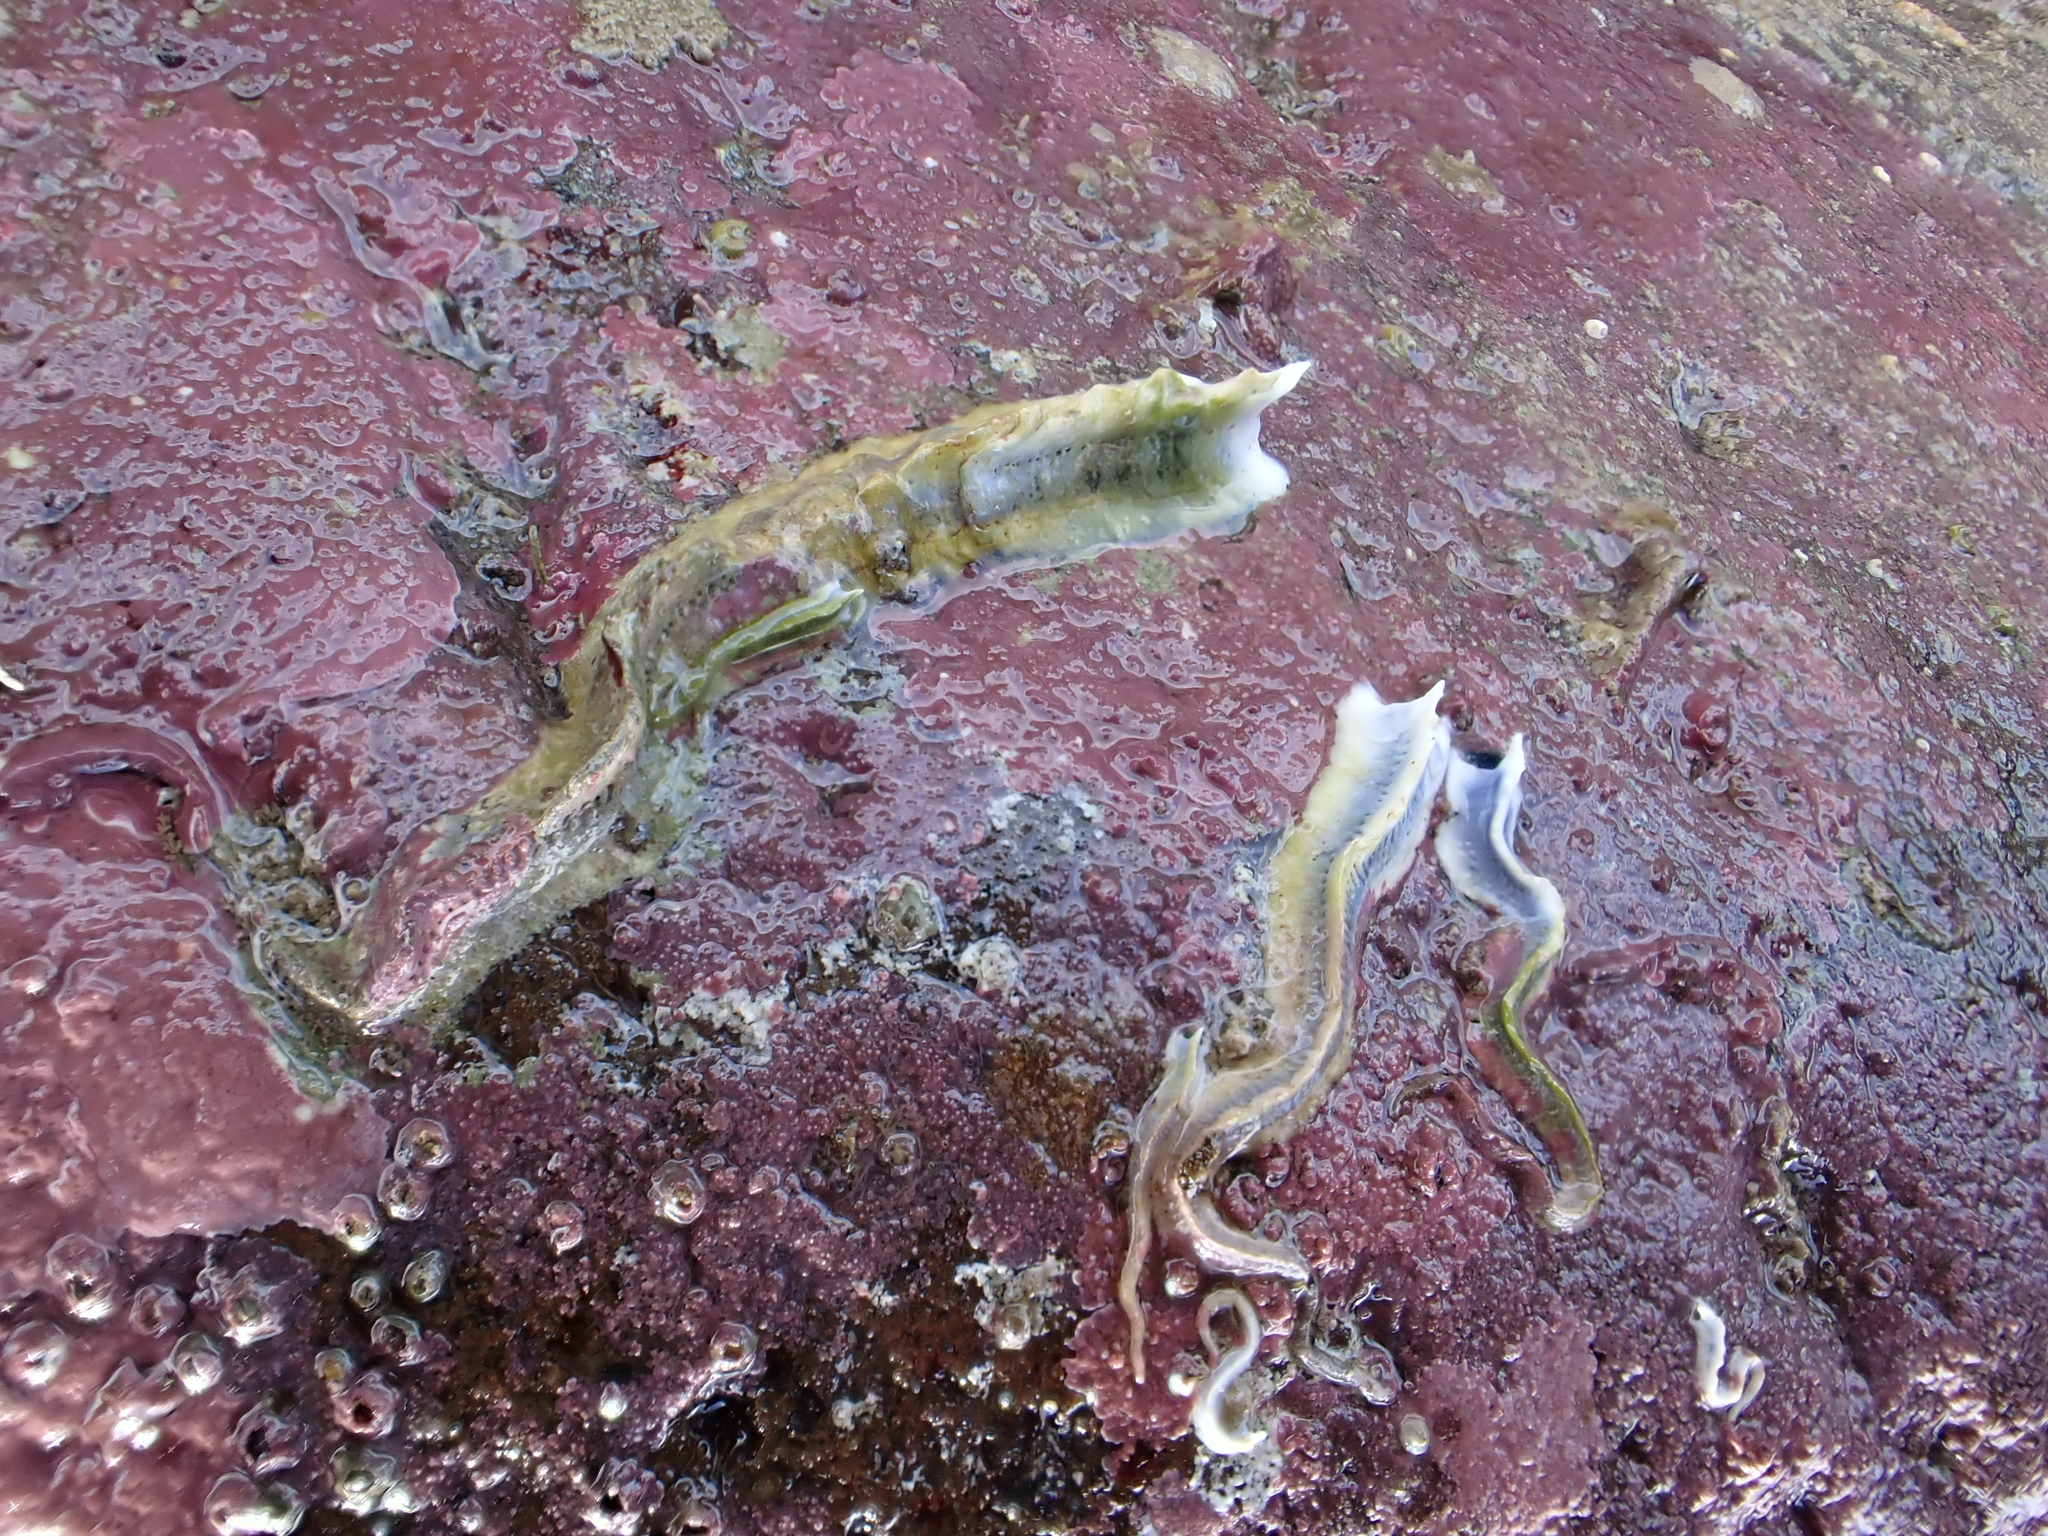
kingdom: Animalia
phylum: Annelida
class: Polychaeta
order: Sabellida
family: Serpulidae
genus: Spirobranchus
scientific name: Spirobranchus cariniferus
